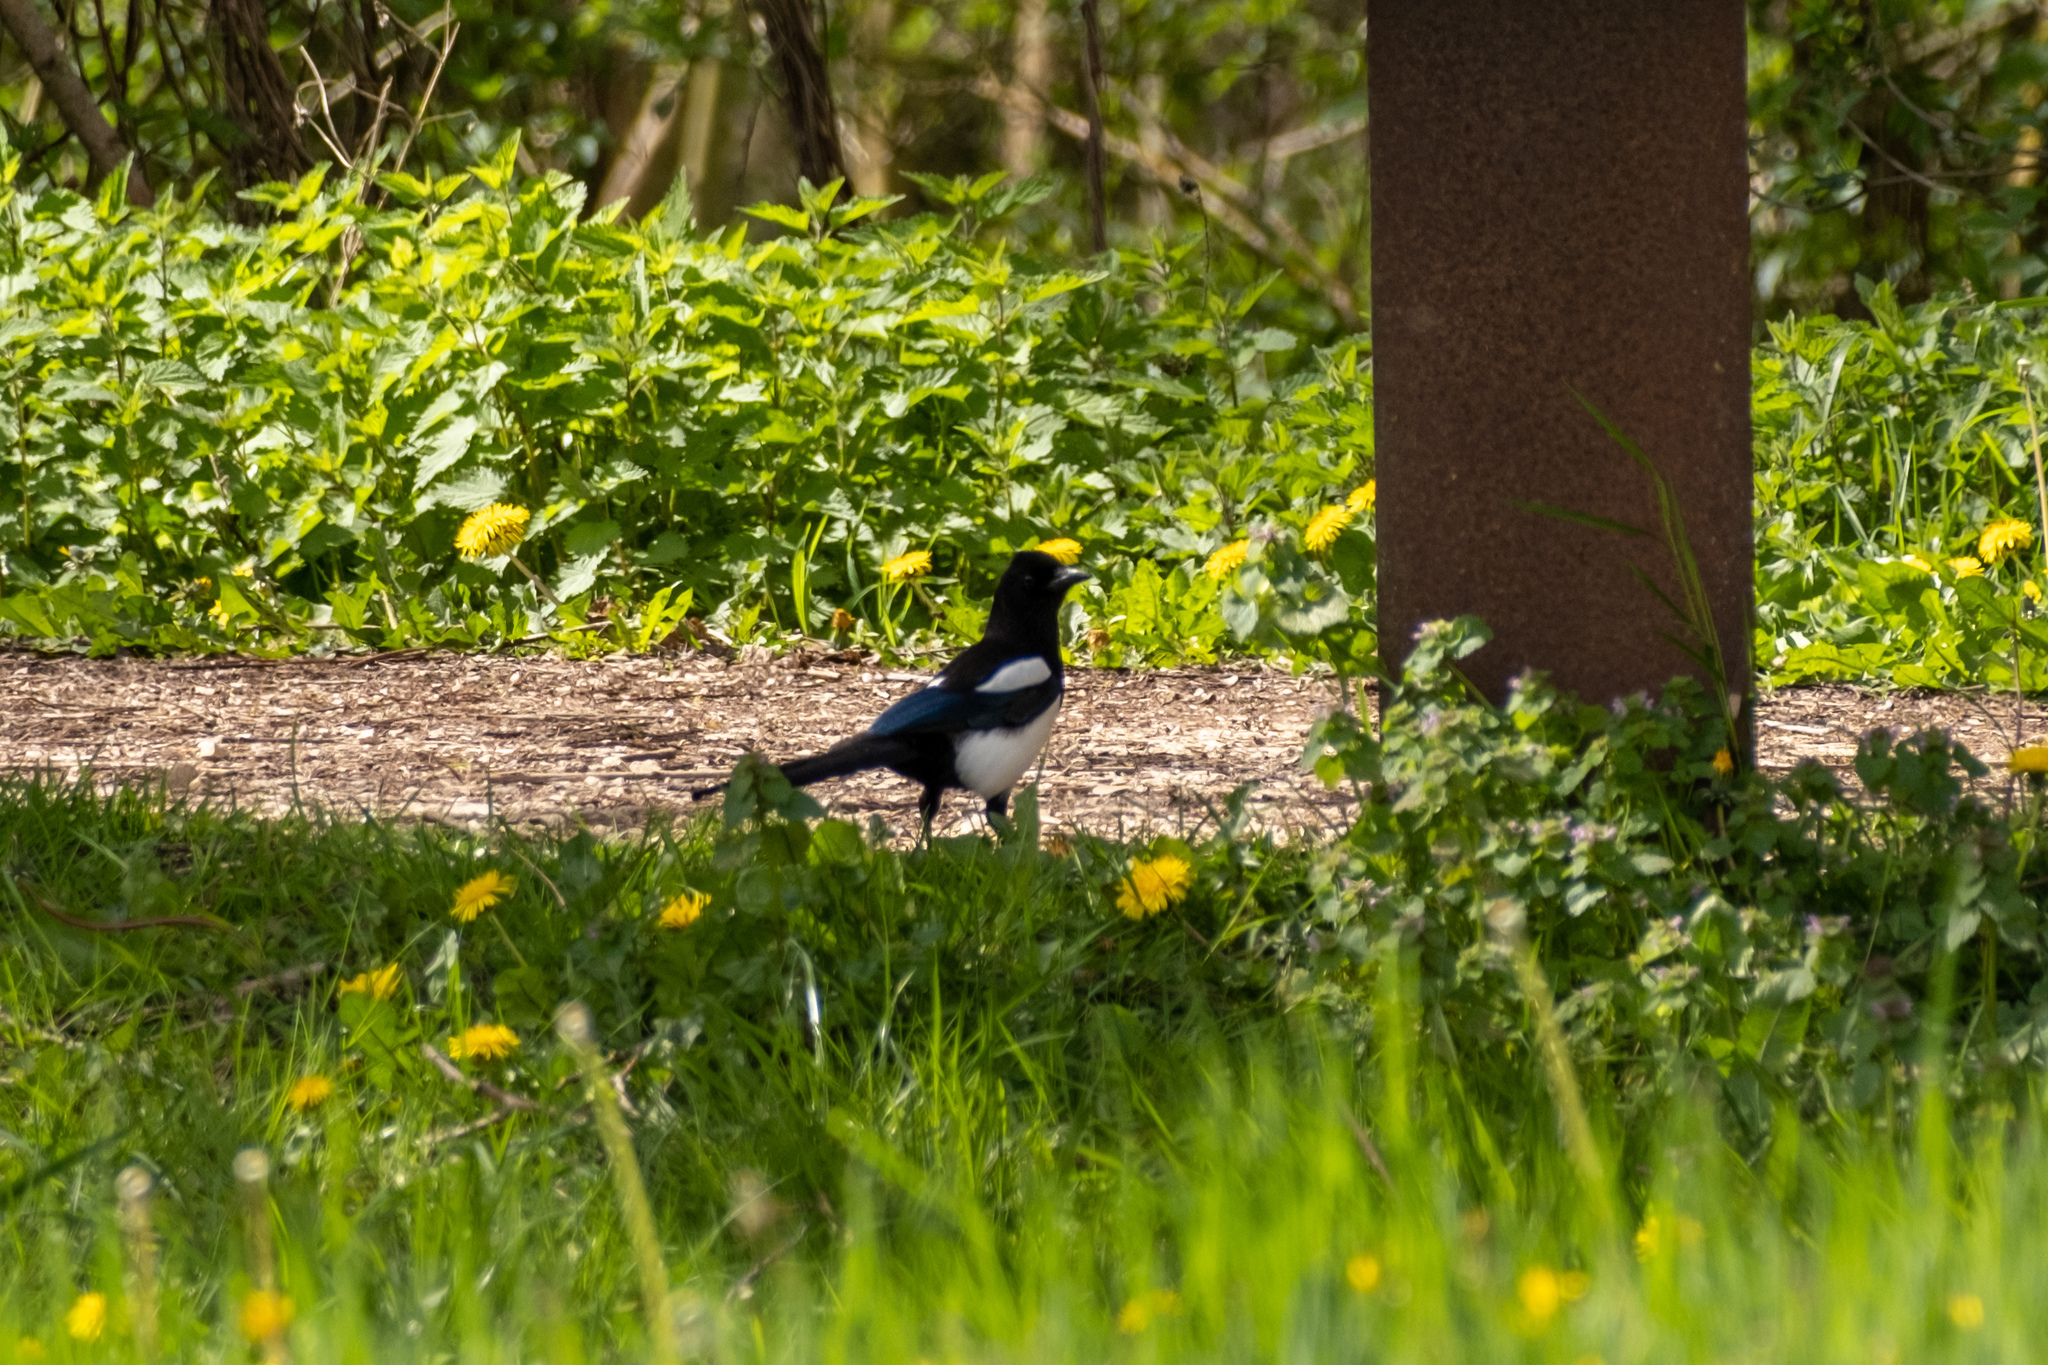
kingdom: Animalia
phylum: Chordata
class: Aves
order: Passeriformes
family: Corvidae
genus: Pica
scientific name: Pica pica
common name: Eurasian magpie
